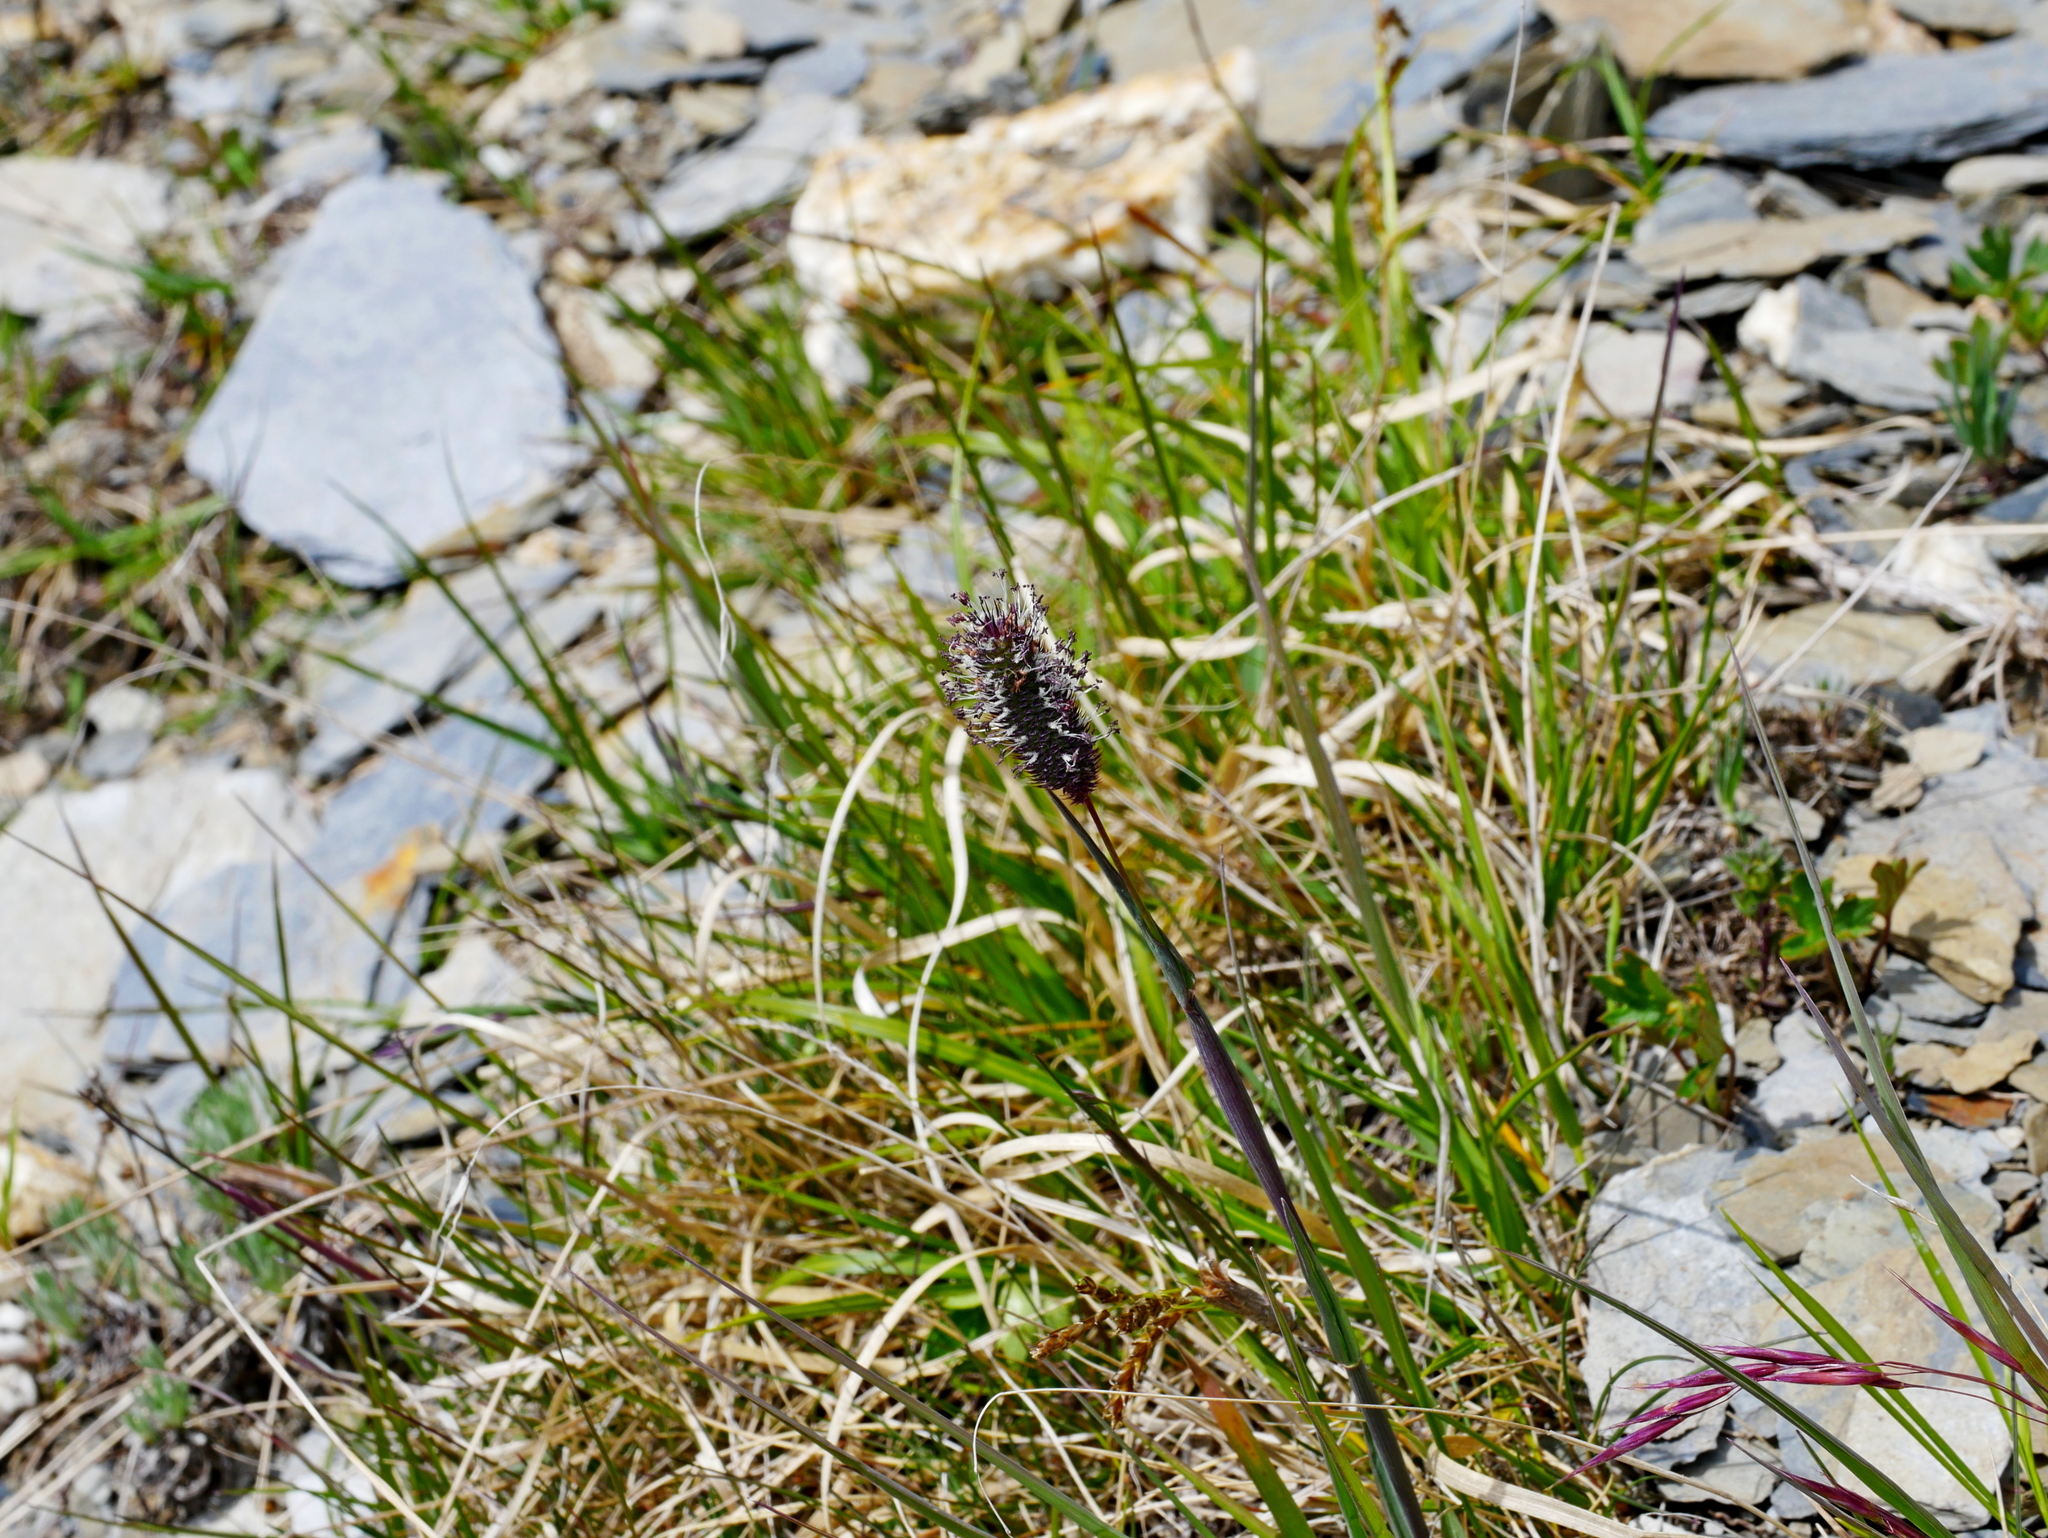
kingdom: Plantae
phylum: Tracheophyta
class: Liliopsida
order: Poales
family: Poaceae
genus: Phleum
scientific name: Phleum alpinum
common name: Alpine cat's-tail
